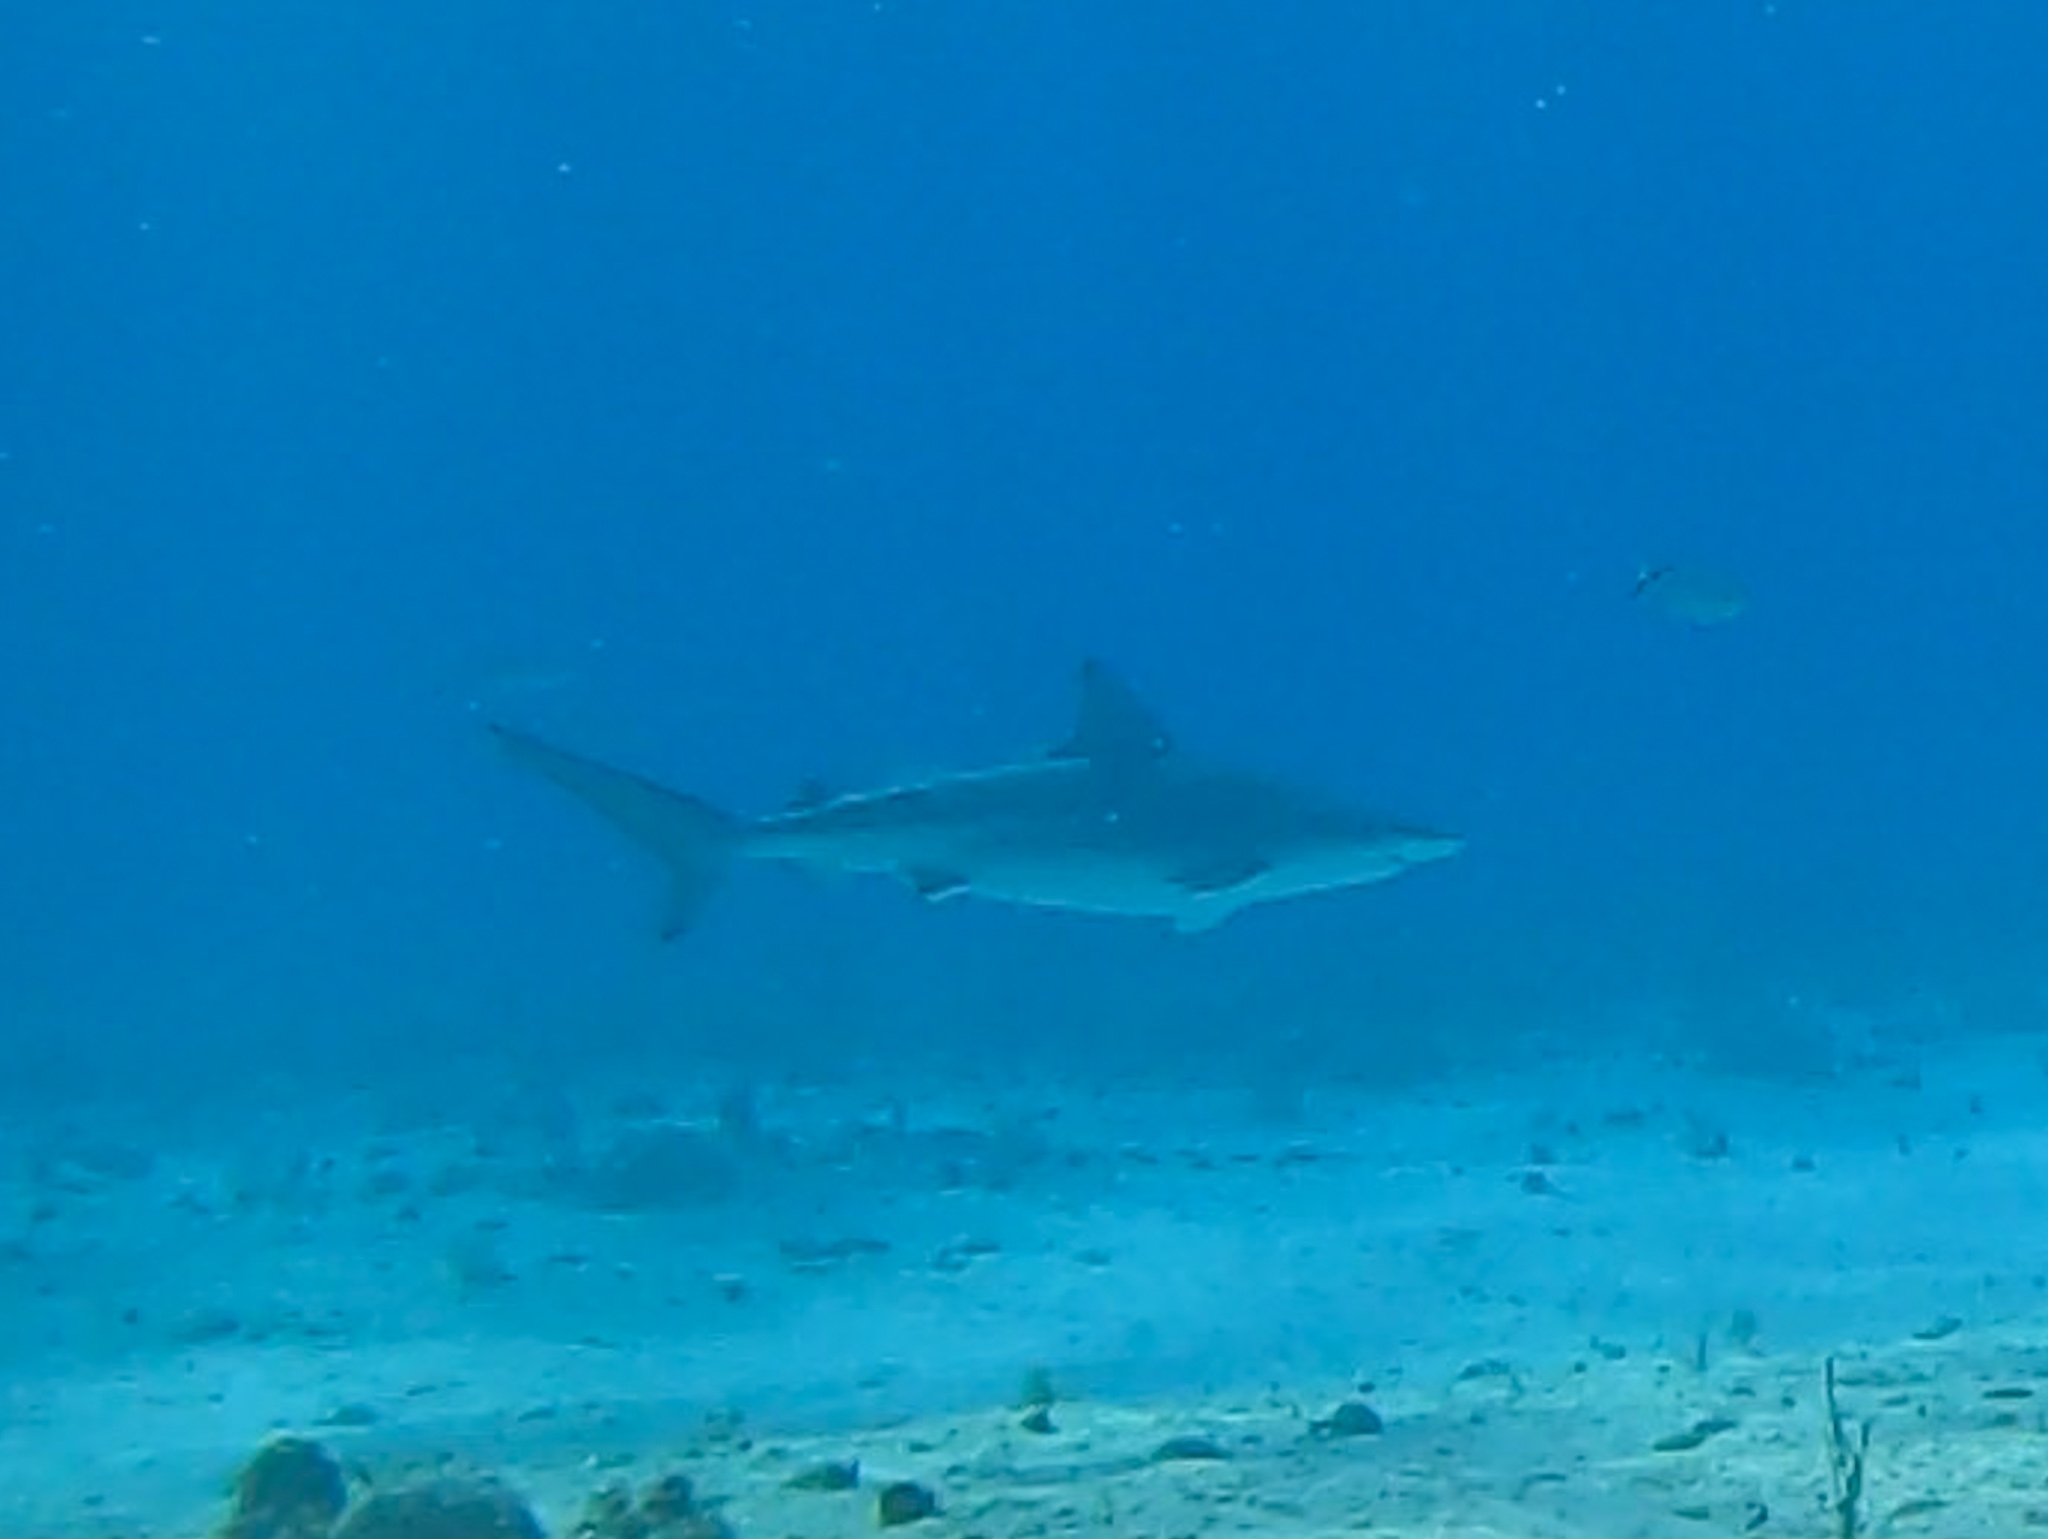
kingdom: Animalia
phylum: Chordata
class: Elasmobranchii
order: Carcharhiniformes
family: Carcharhinidae
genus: Carcharhinus
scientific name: Carcharhinus plumbeus
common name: Sandbar shark
